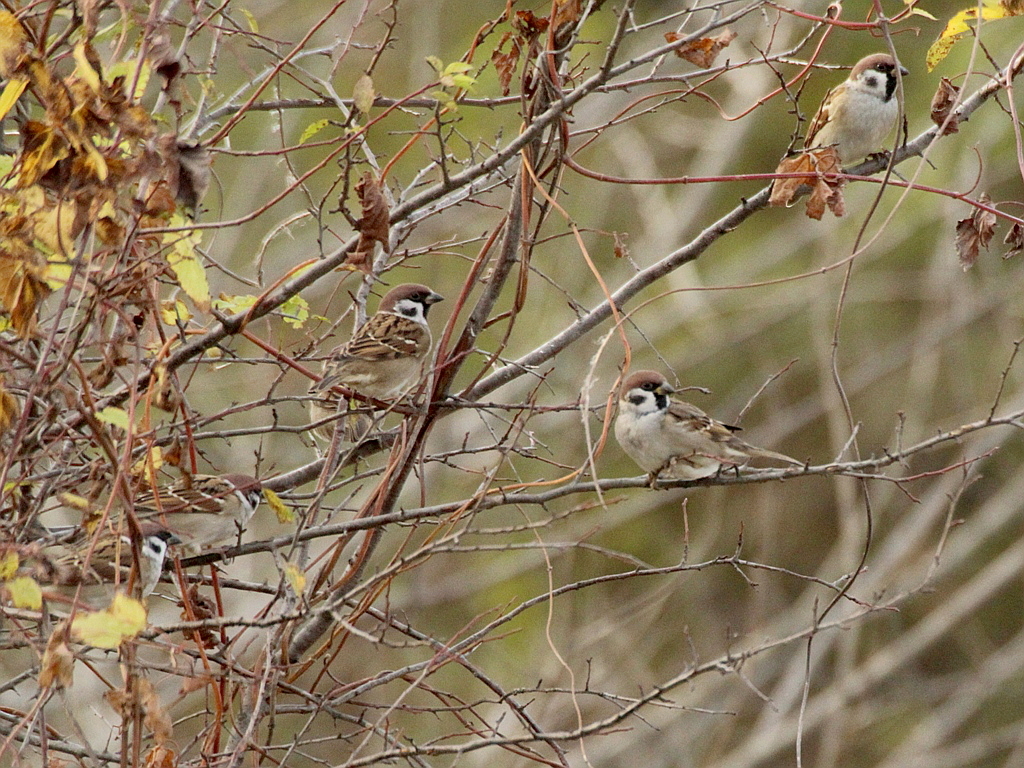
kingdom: Animalia
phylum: Chordata
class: Aves
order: Passeriformes
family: Passeridae
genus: Passer
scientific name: Passer montanus
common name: Eurasian tree sparrow
